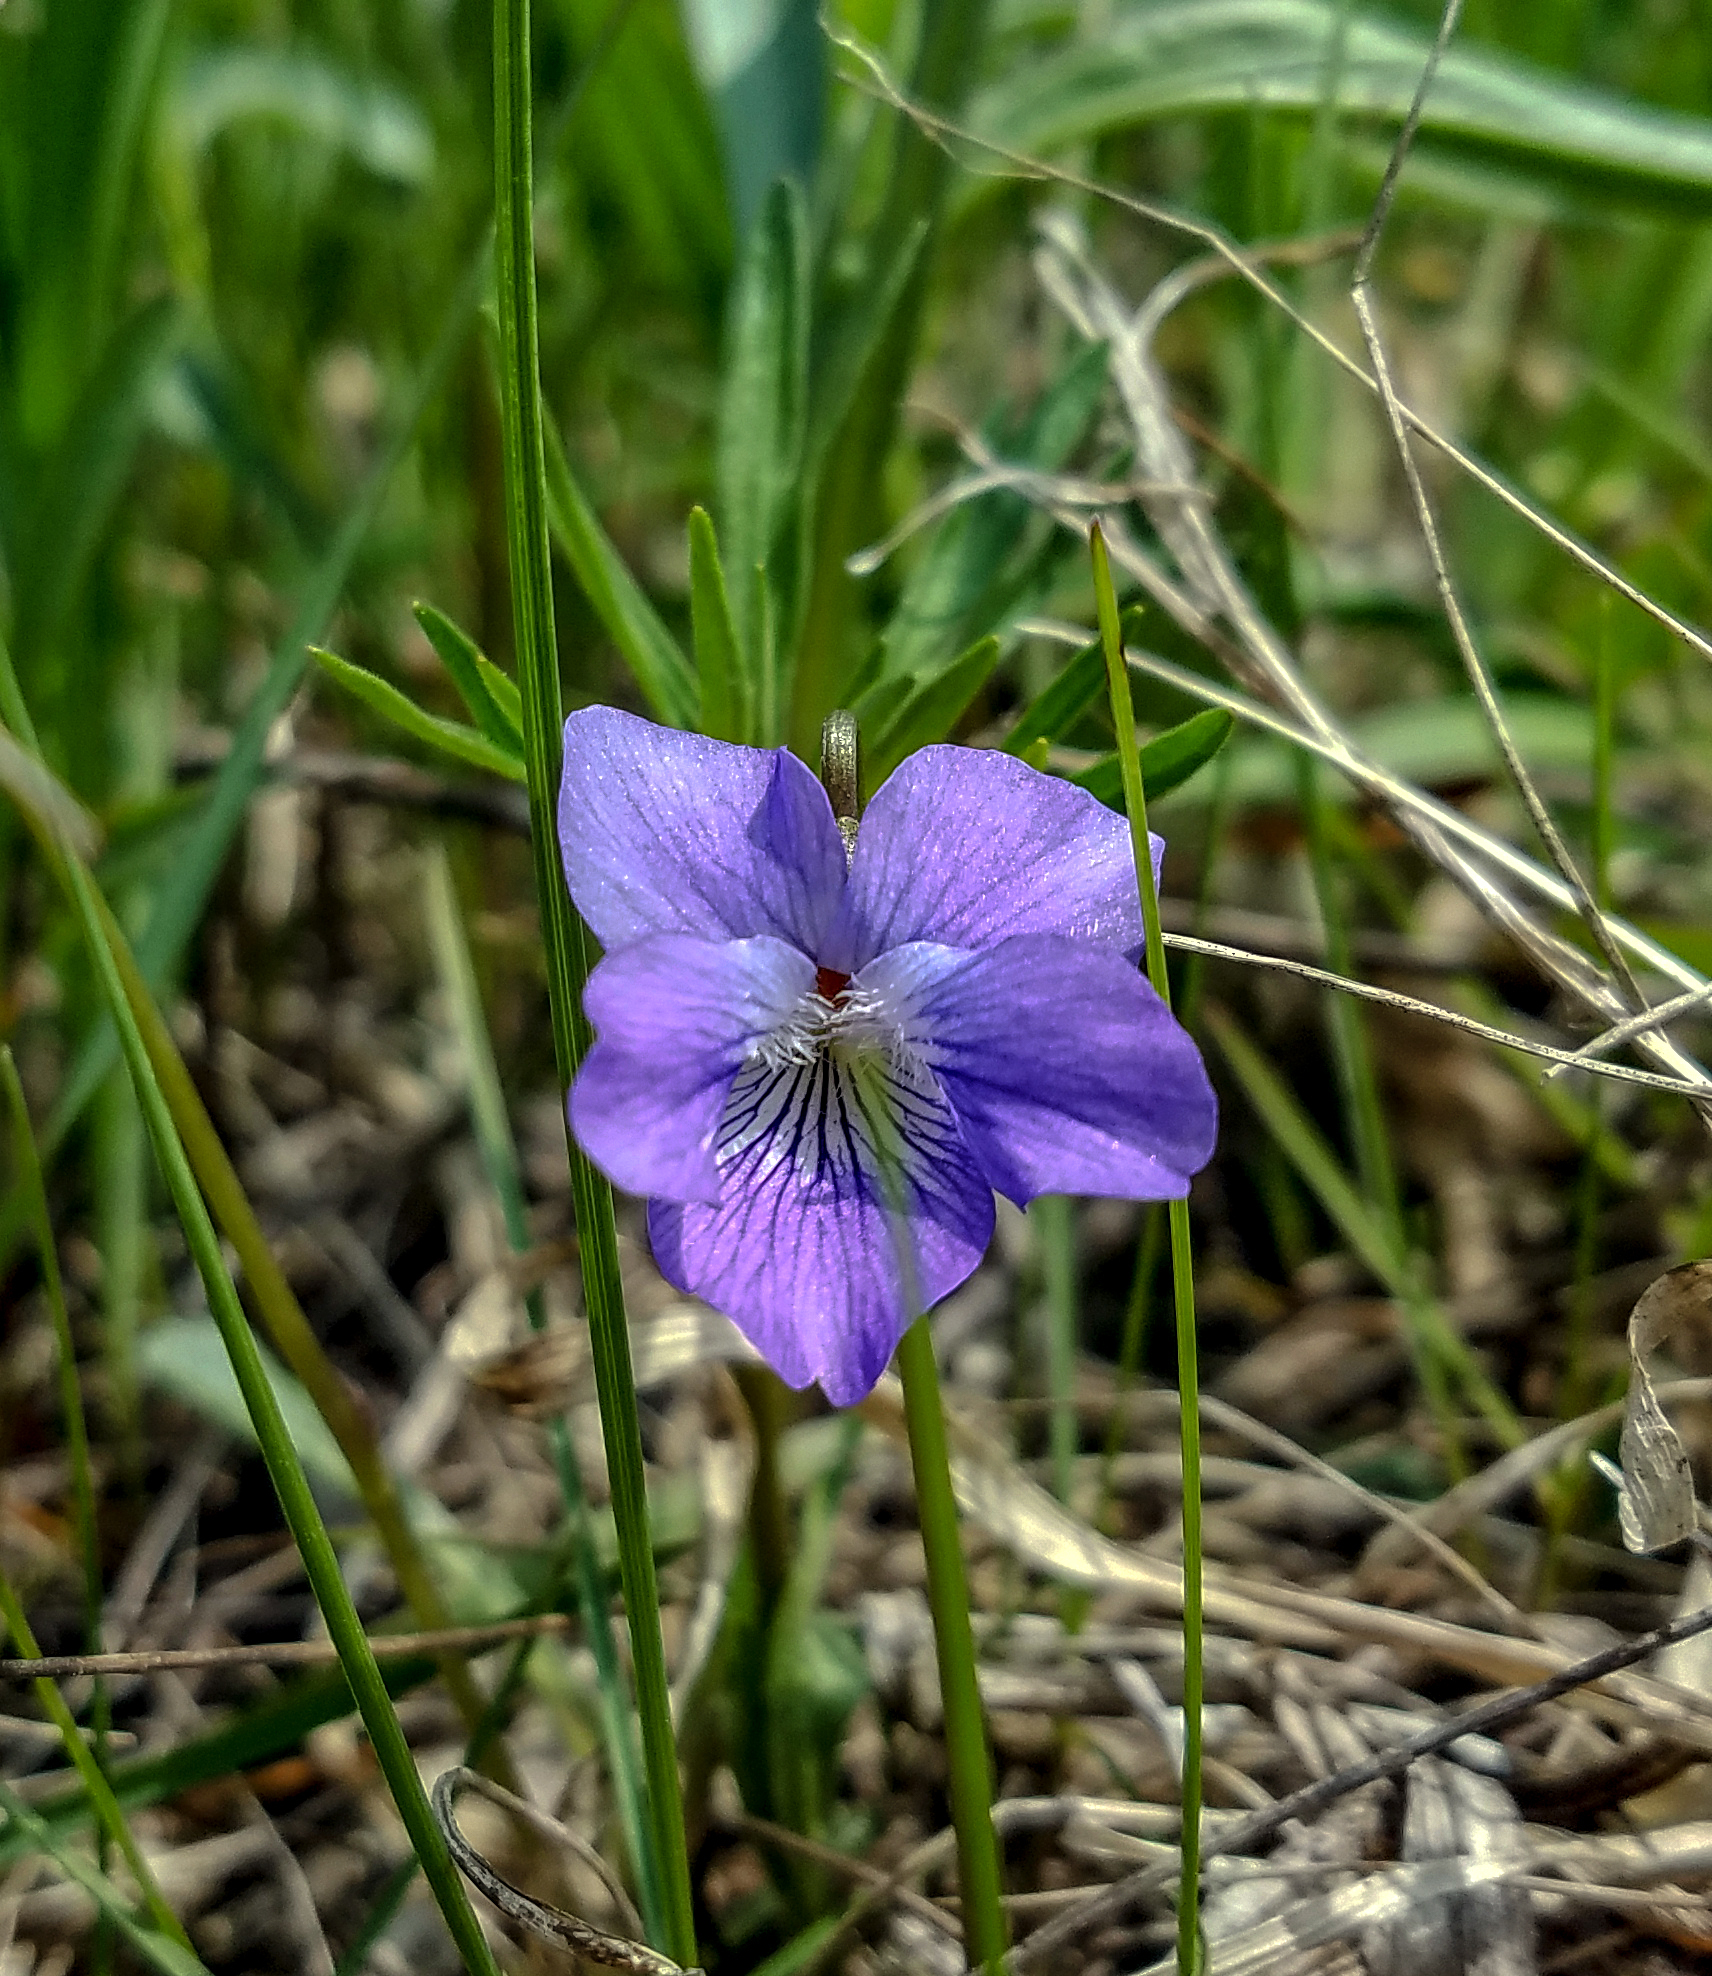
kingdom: Plantae
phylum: Tracheophyta
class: Magnoliopsida
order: Malpighiales
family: Violaceae
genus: Viola
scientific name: Viola pedatifida
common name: Prairie violet
